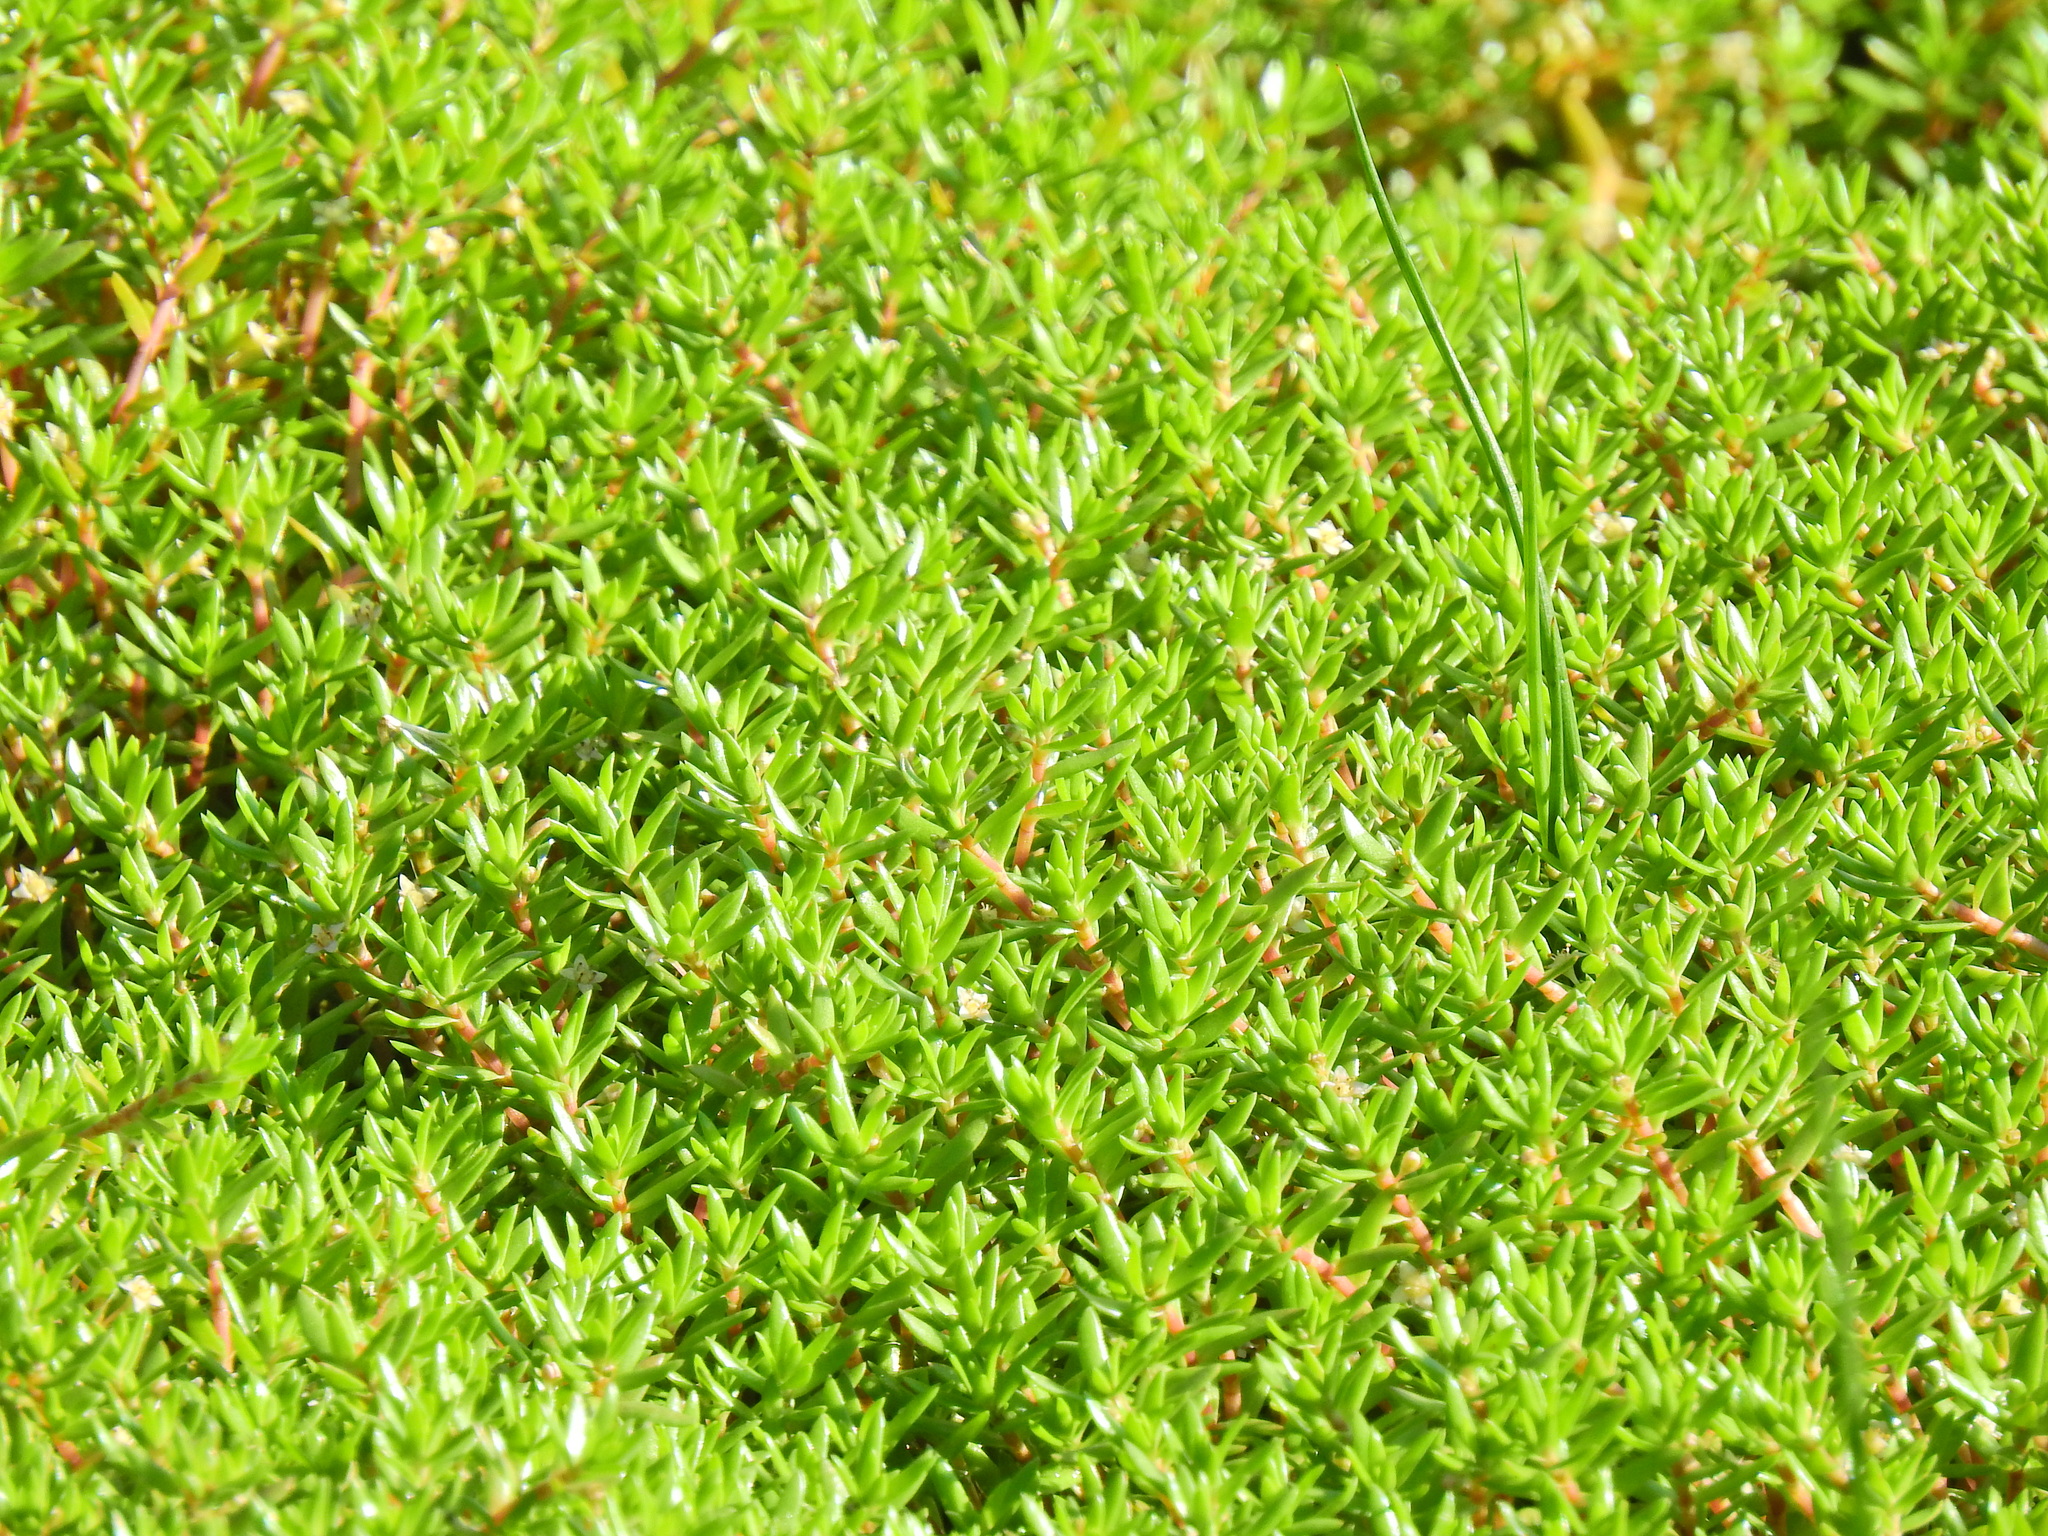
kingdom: Plantae
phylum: Tracheophyta
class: Magnoliopsida
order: Saxifragales
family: Crassulaceae
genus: Crassula
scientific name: Crassula helmsii
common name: New zealand pigmyweed
